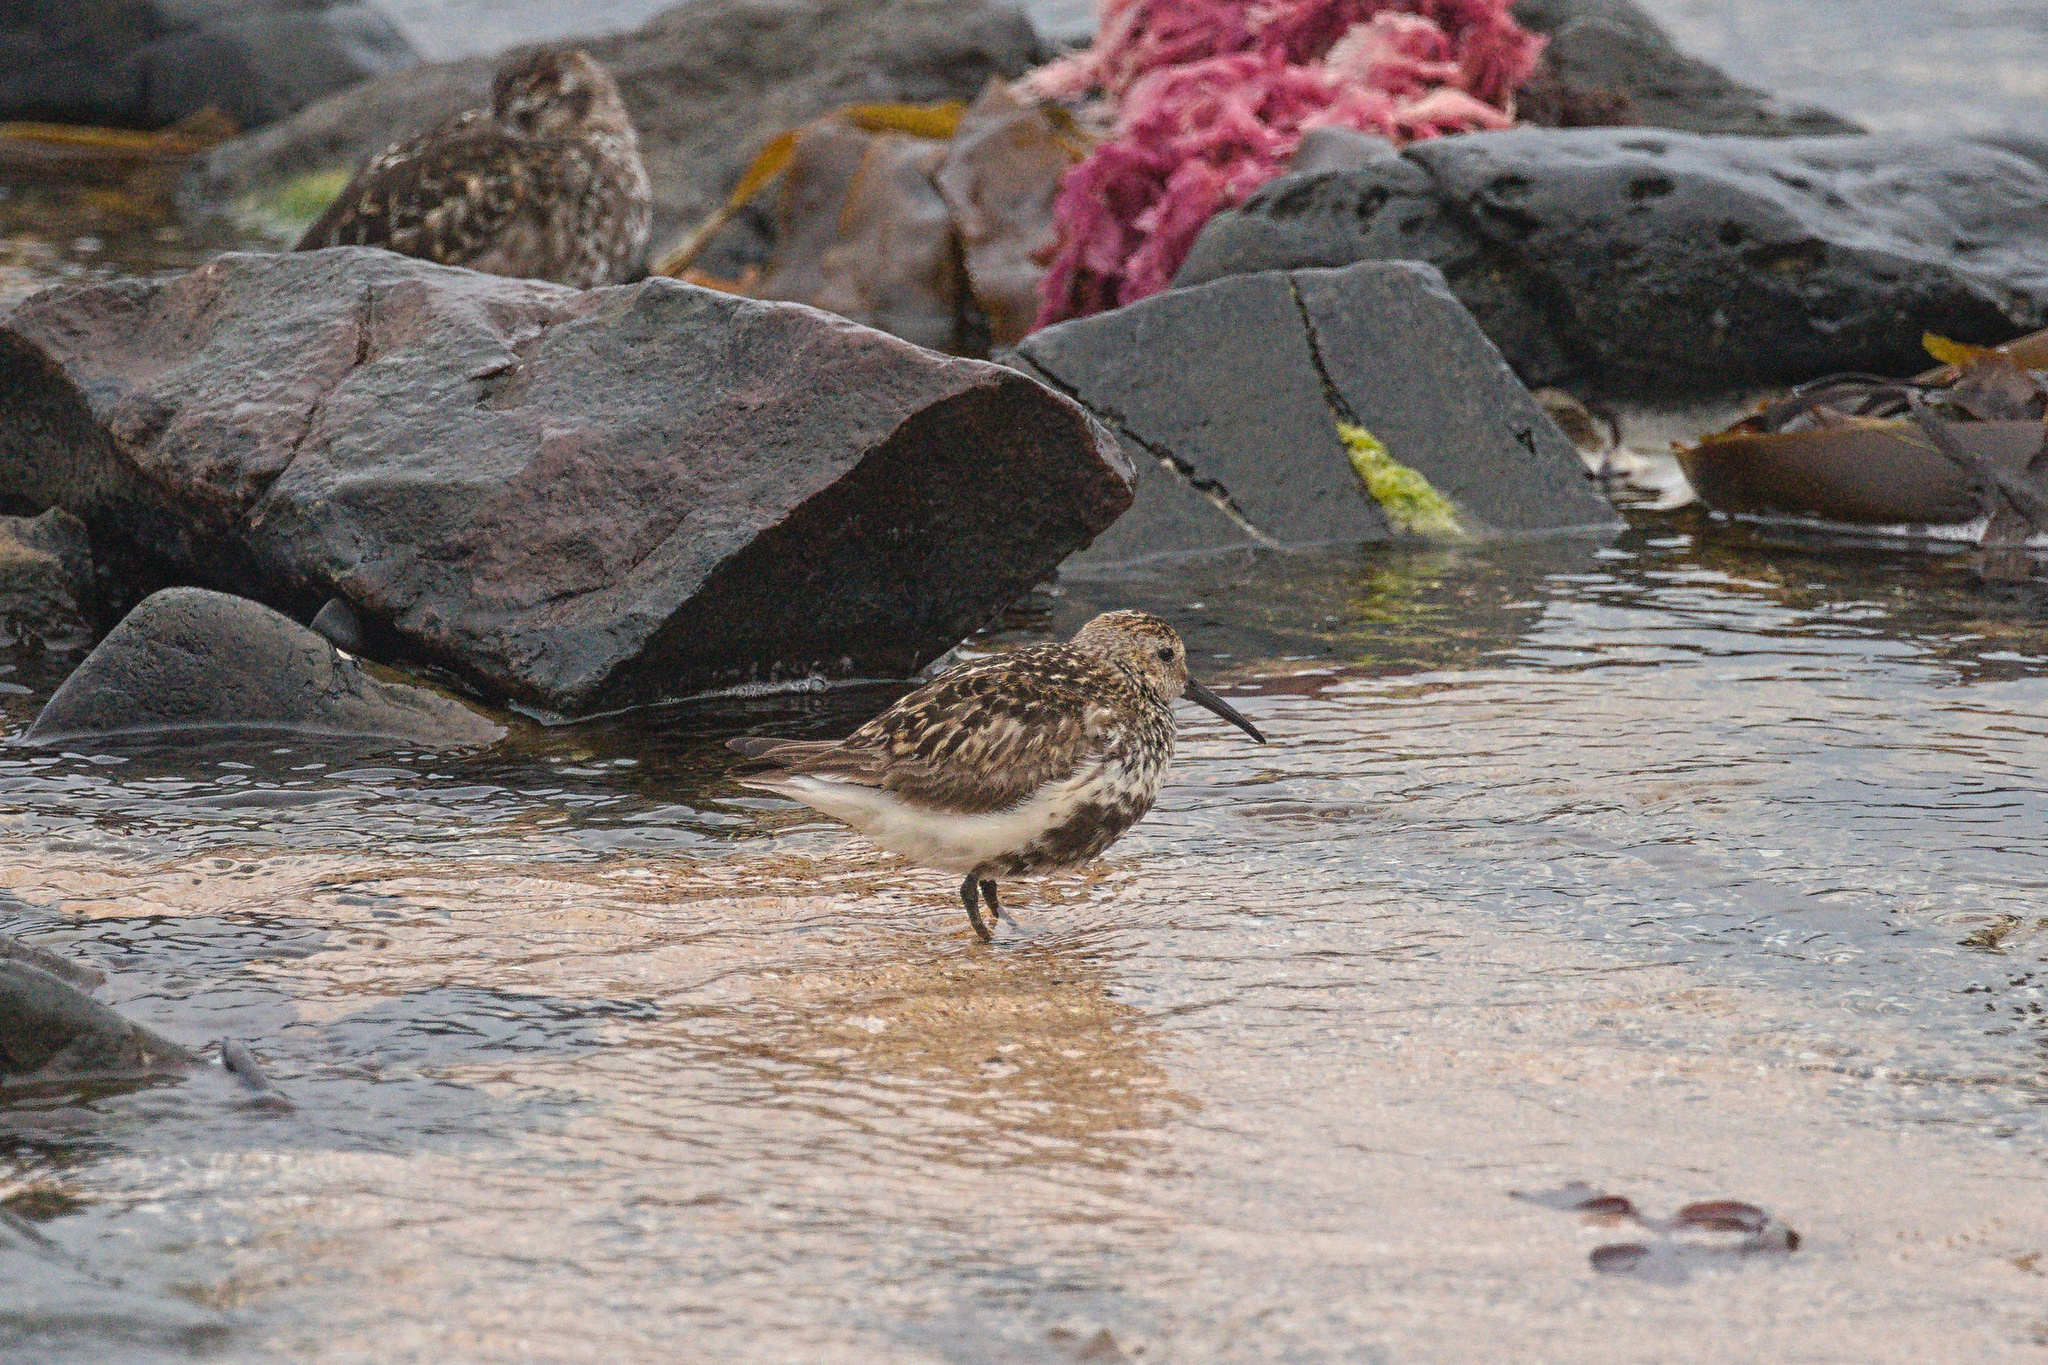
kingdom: Animalia
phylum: Chordata
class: Aves
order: Charadriiformes
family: Scolopacidae
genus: Calidris
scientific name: Calidris alpina
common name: Dunlin
